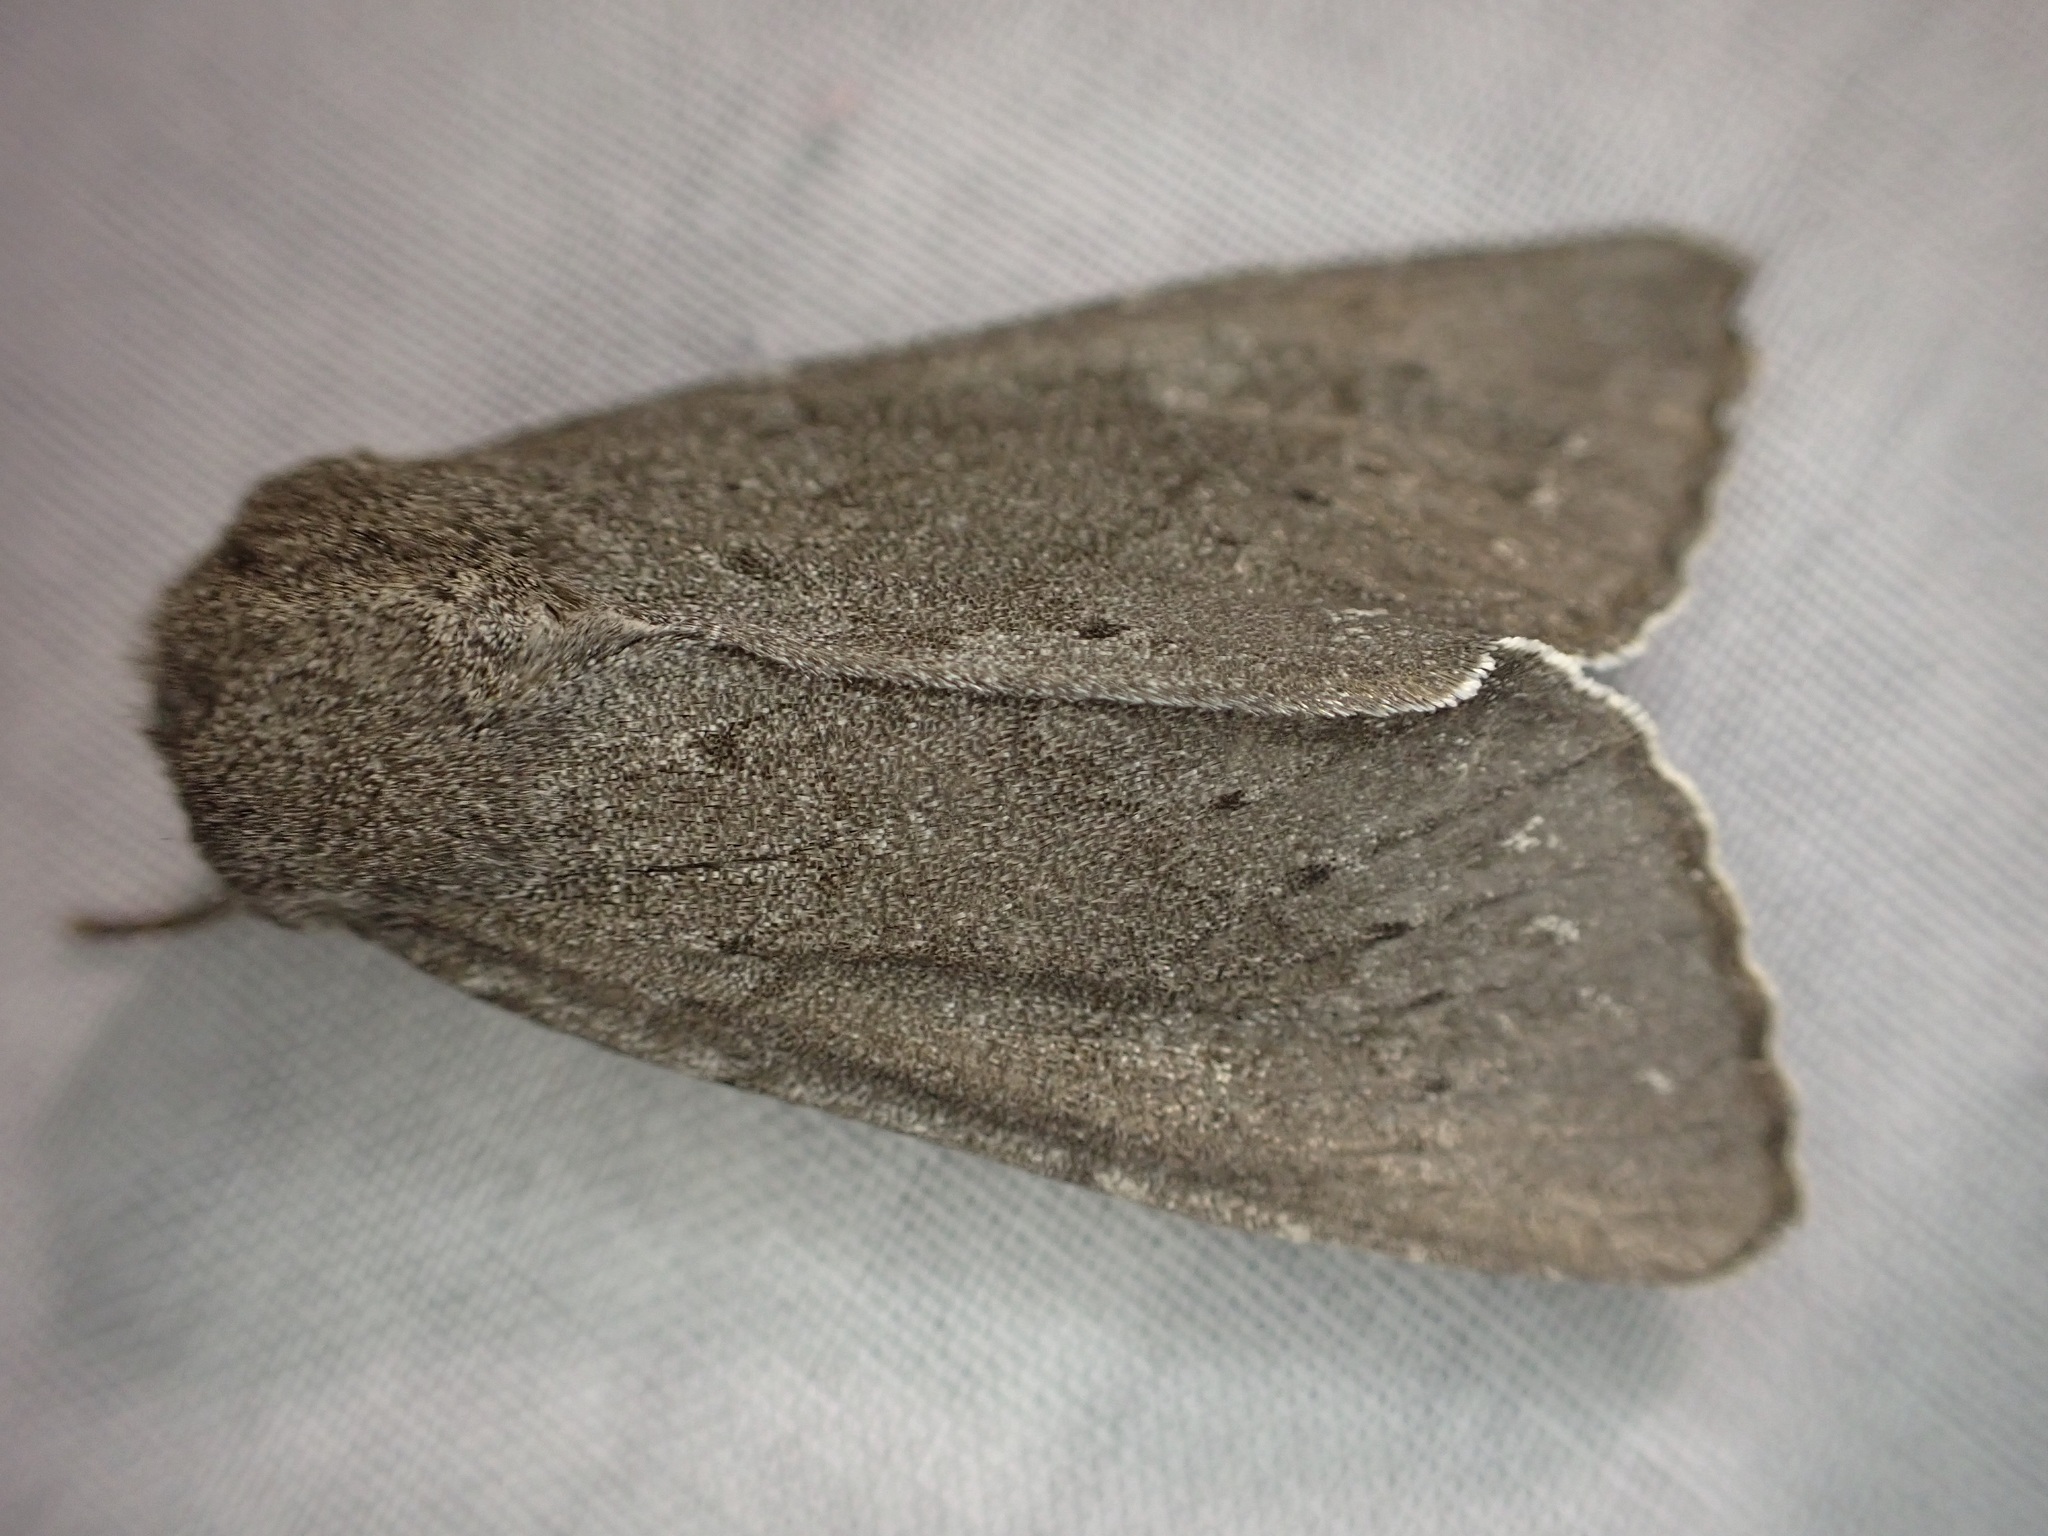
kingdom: Animalia
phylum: Arthropoda
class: Insecta
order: Lepidoptera
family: Noctuidae
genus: Ichneutica
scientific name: Ichneutica nullifera
